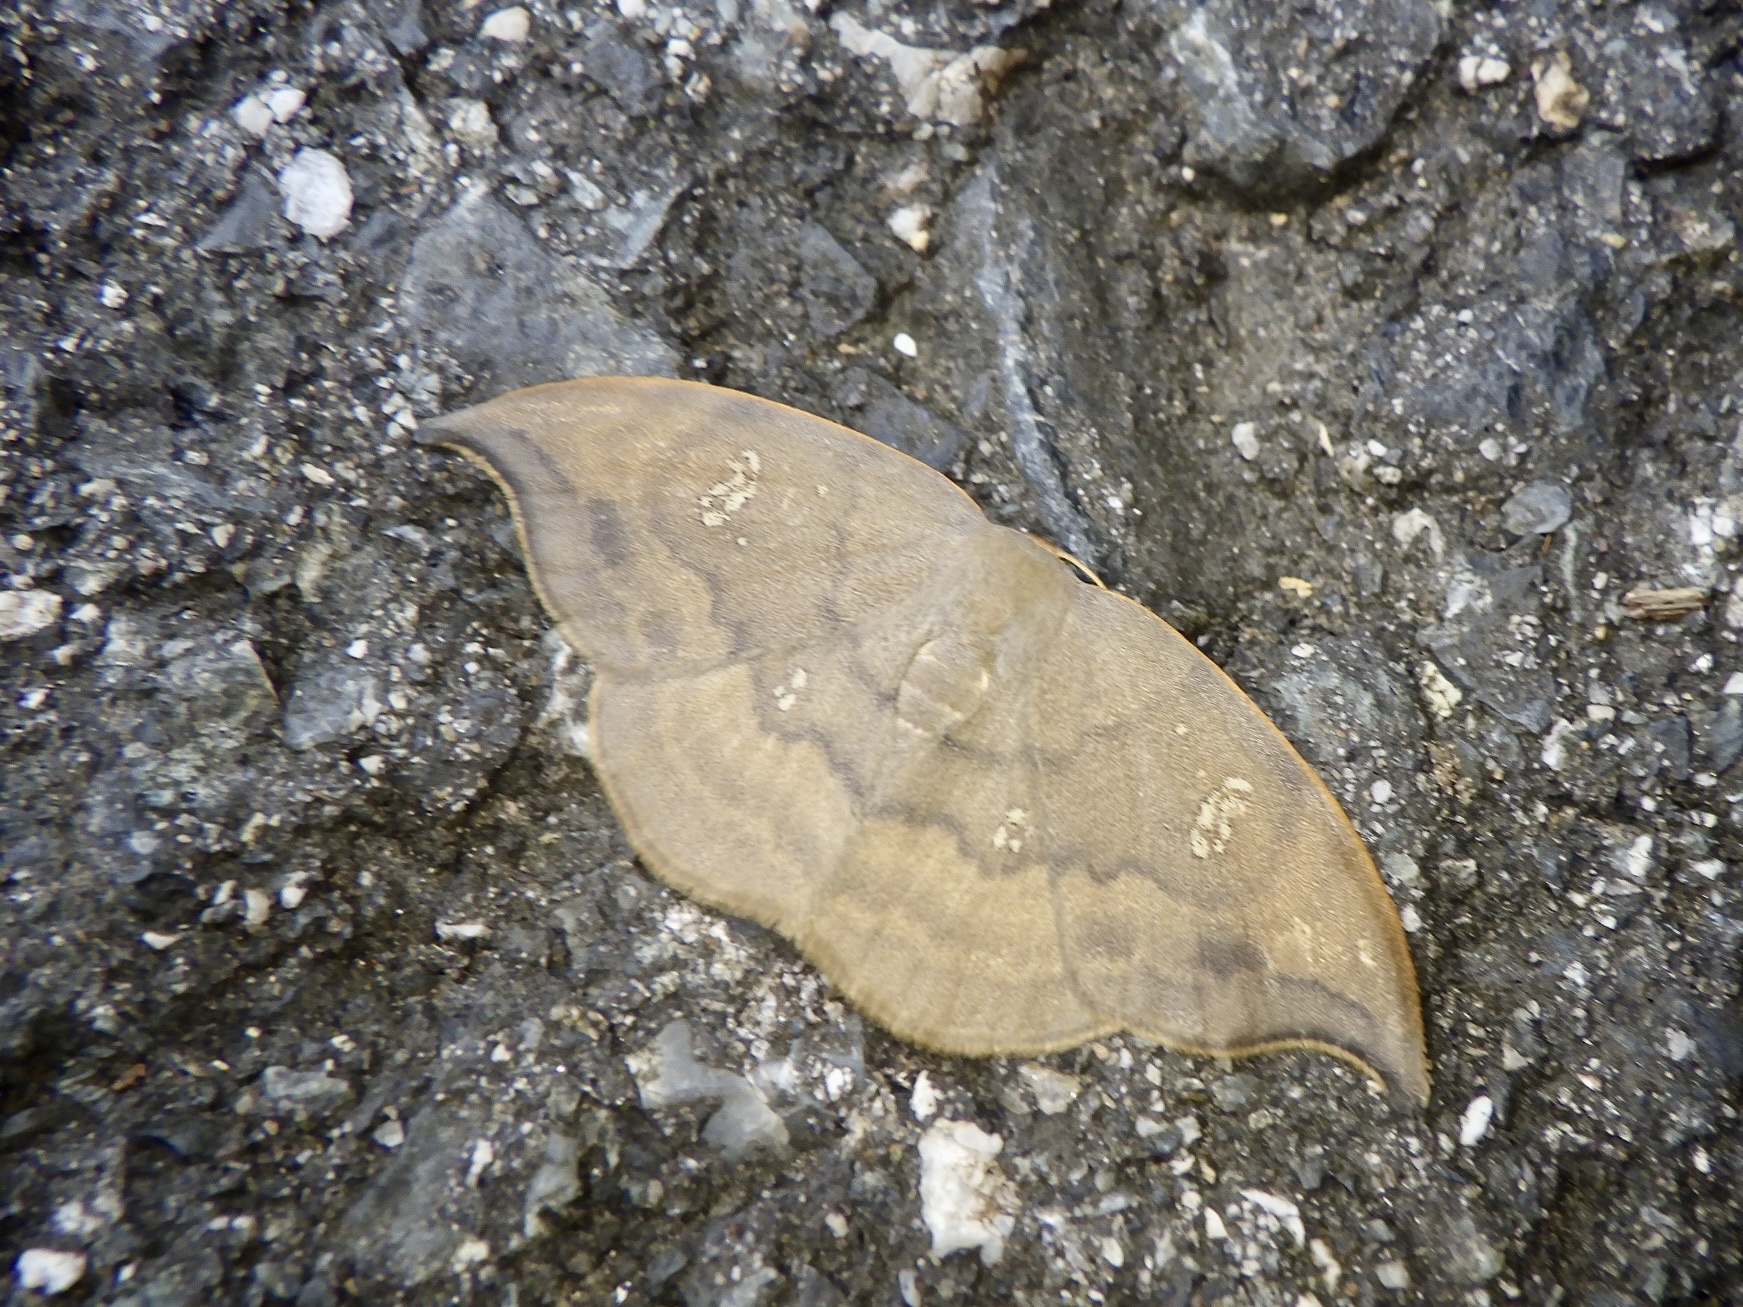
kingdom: Animalia
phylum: Arthropoda
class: Insecta
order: Lepidoptera
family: Drepanidae
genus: Agnidra
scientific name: Agnidra scabiosa
